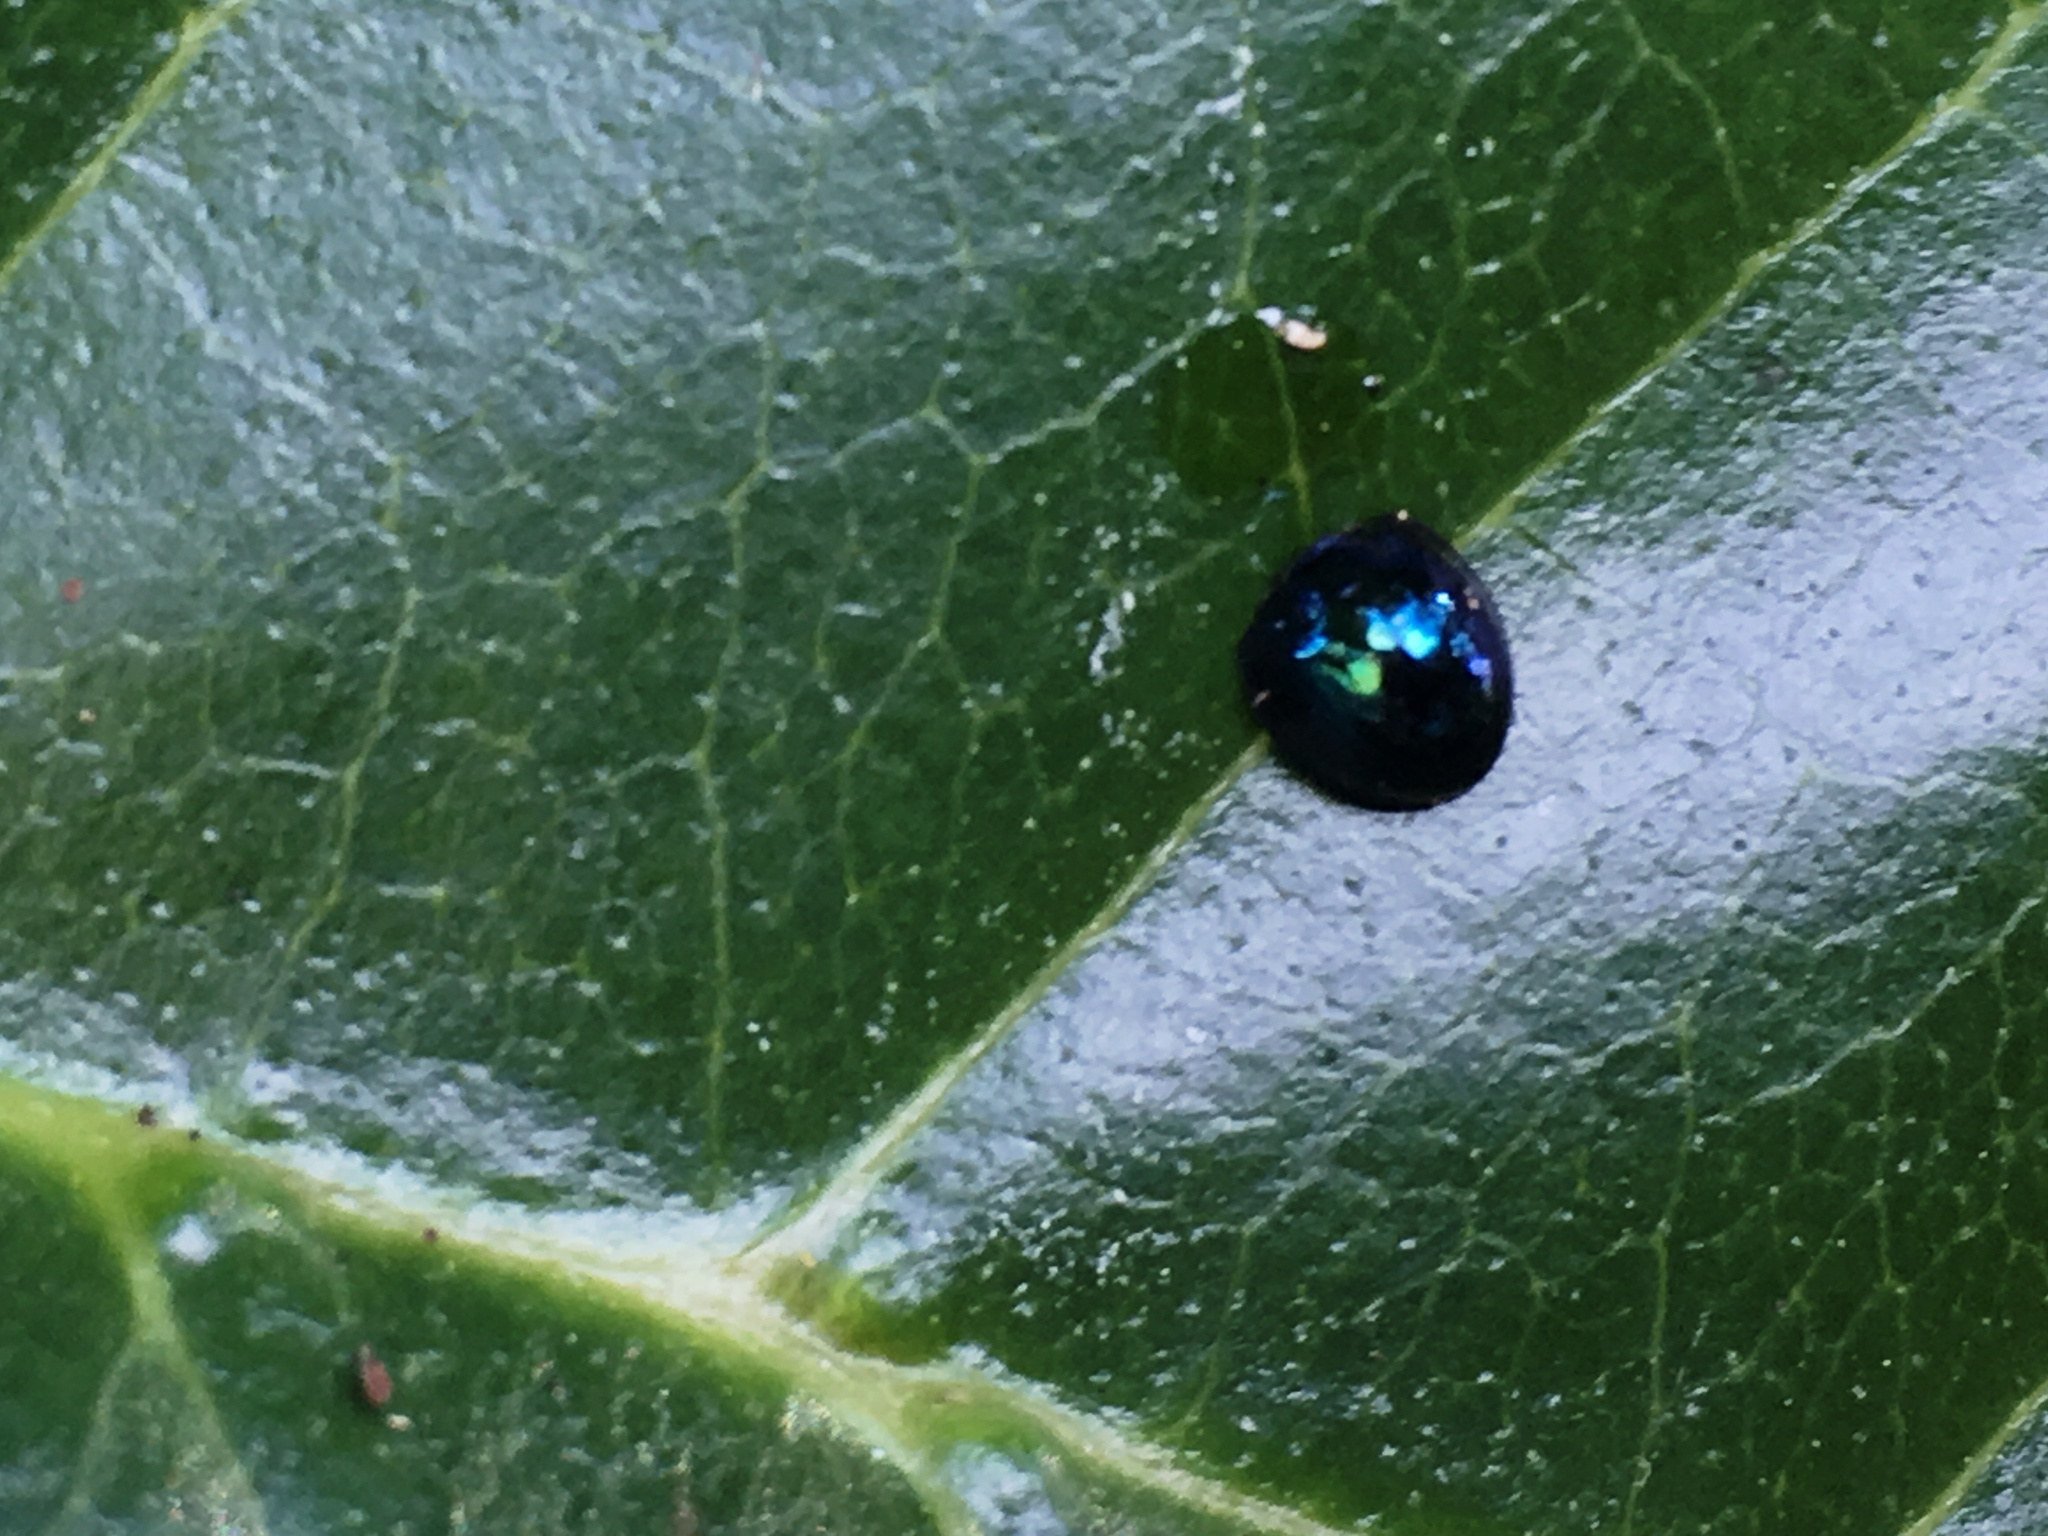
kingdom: Animalia
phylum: Arthropoda
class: Insecta
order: Coleoptera
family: Coccinellidae
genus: Halmus
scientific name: Halmus chalybeus
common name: Steel blue ladybird beetle
